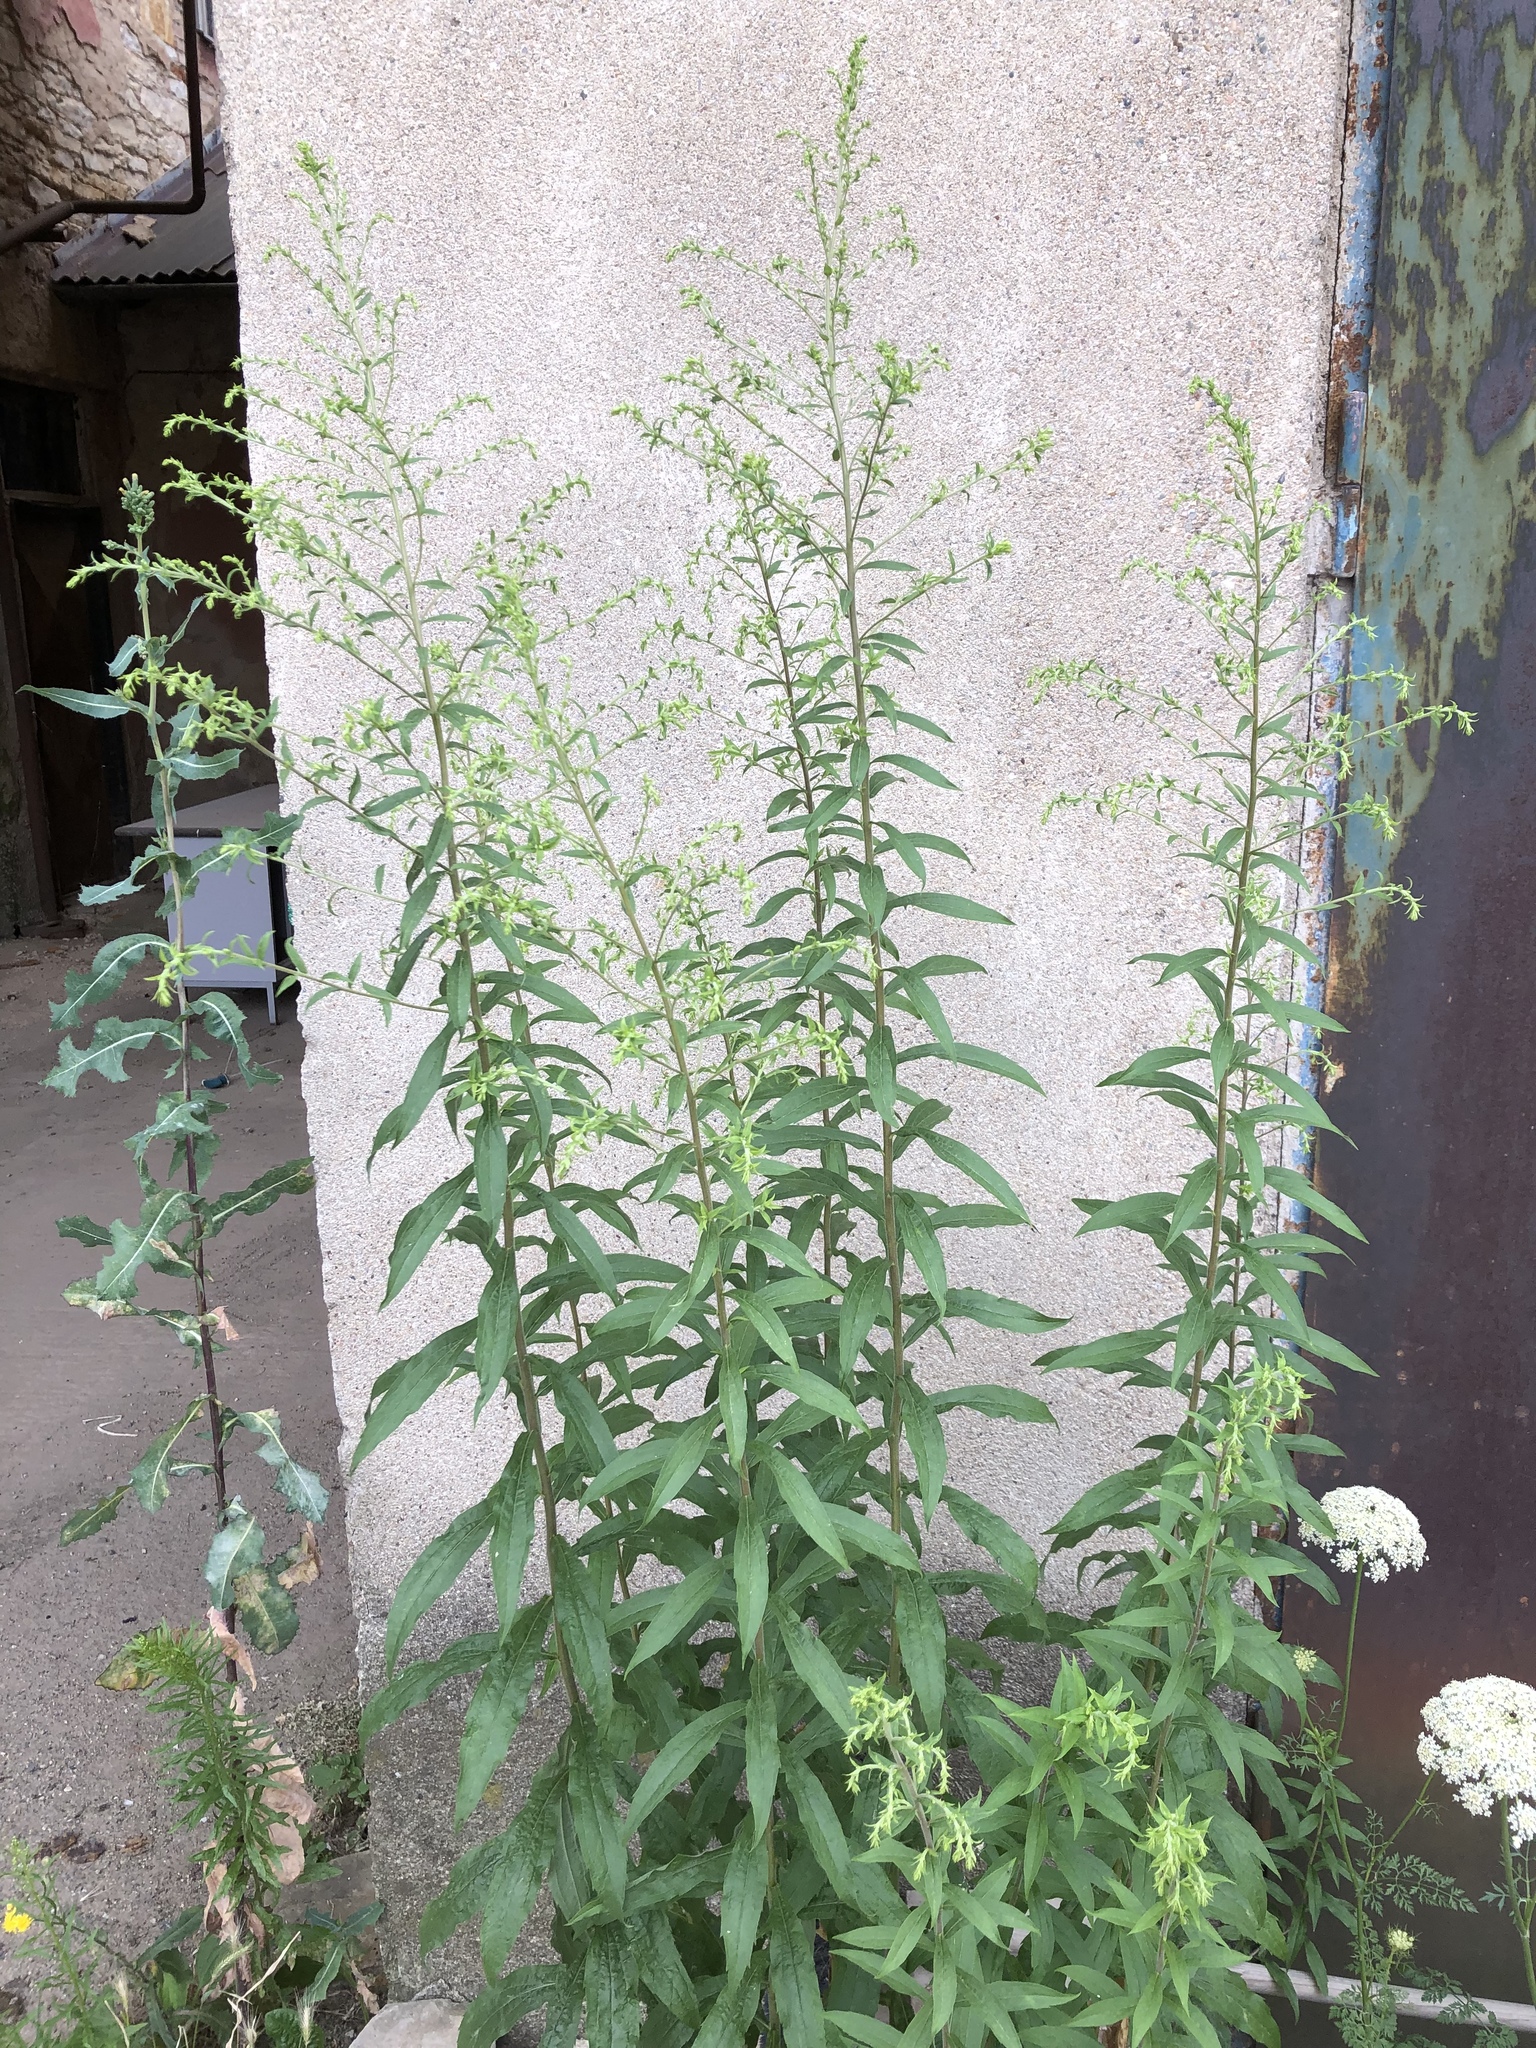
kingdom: Plantae
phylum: Tracheophyta
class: Magnoliopsida
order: Asterales
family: Asteraceae
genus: Solidago
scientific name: Solidago canadensis
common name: Canada goldenrod
